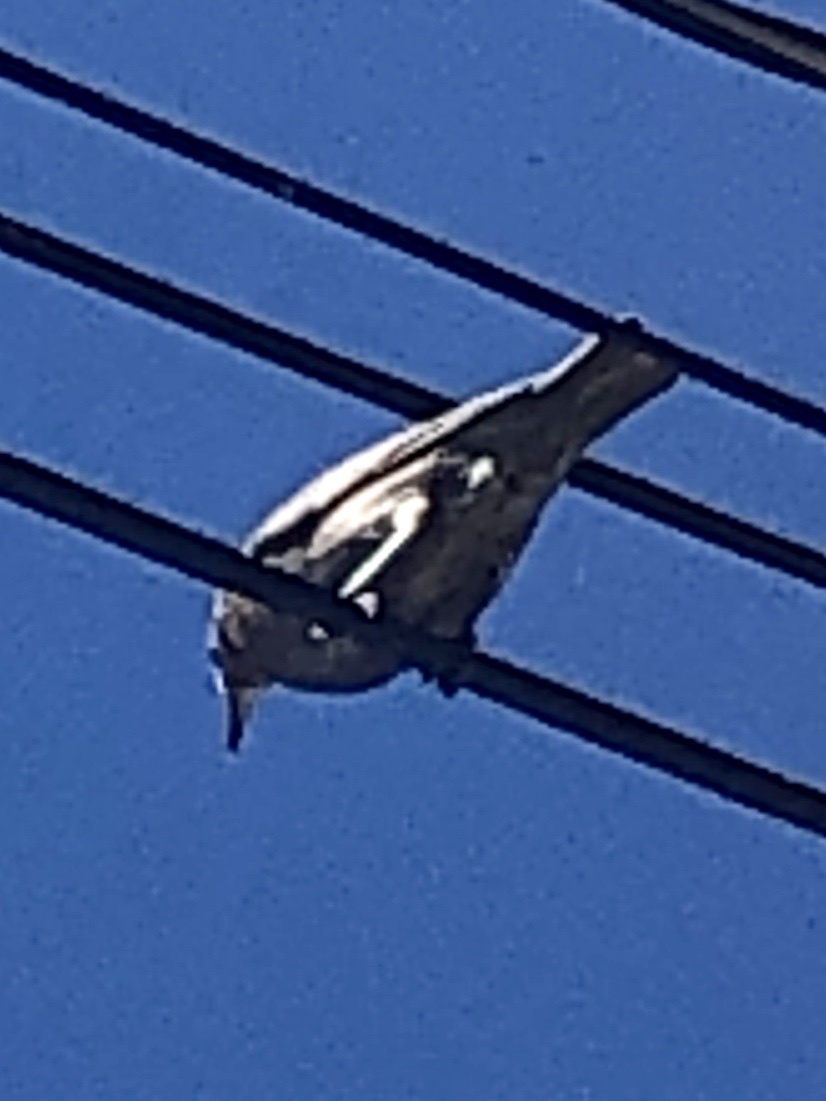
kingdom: Animalia
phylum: Chordata
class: Aves
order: Passeriformes
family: Mimidae
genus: Mimus
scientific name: Mimus polyglottos
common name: Northern mockingbird
